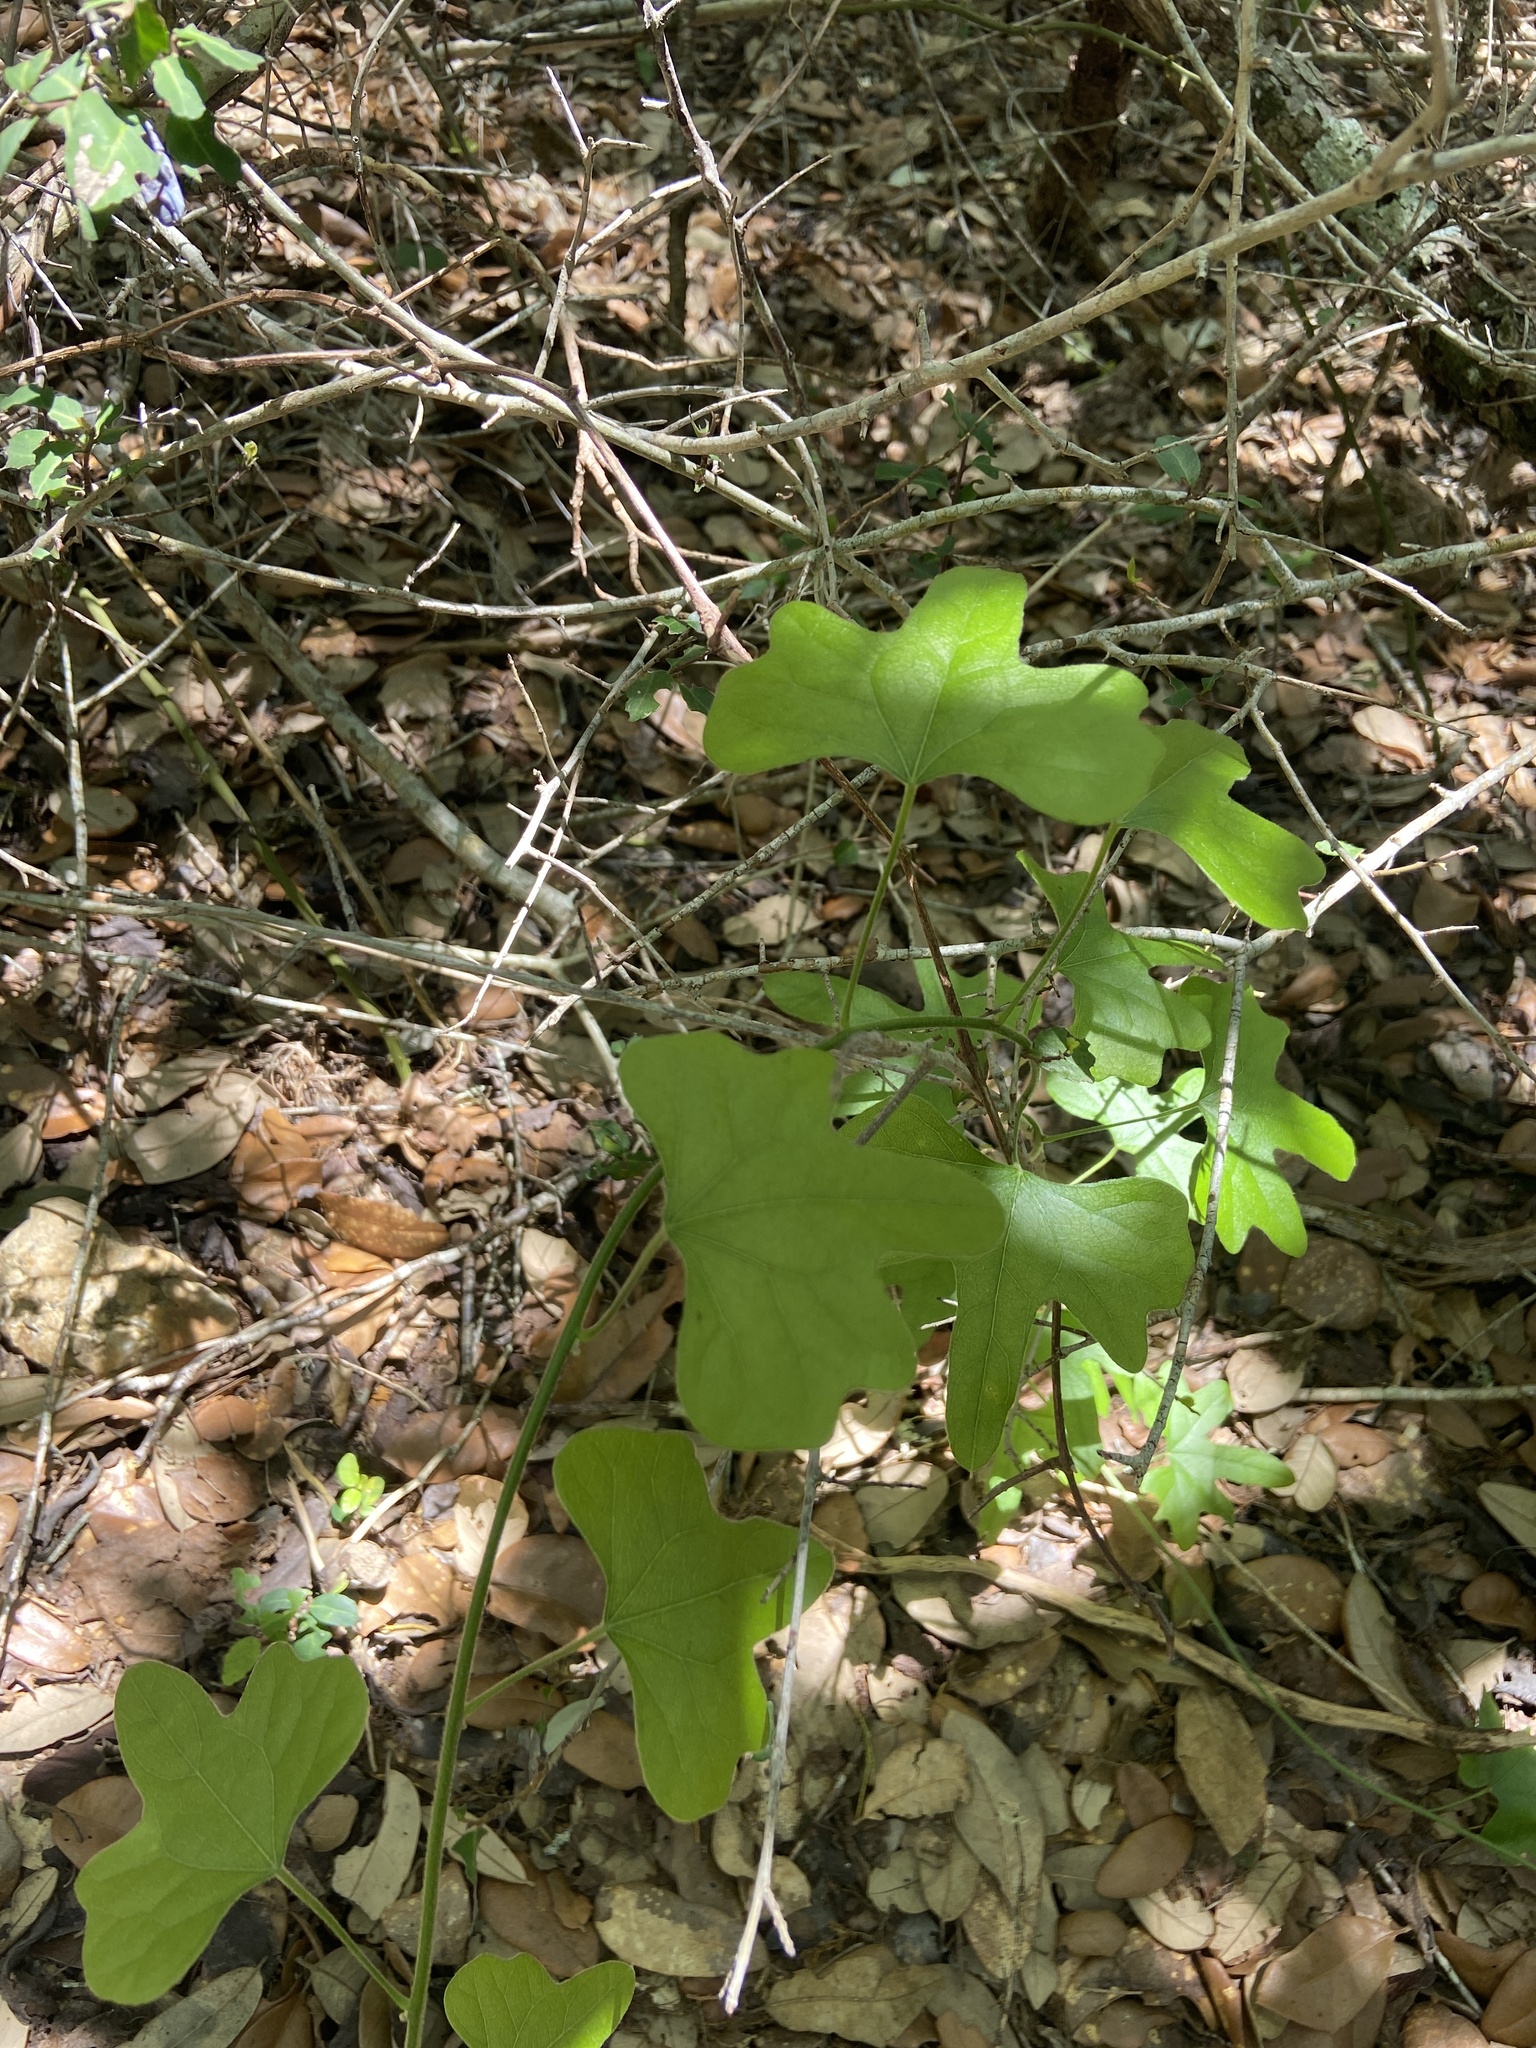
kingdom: Plantae
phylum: Tracheophyta
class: Magnoliopsida
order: Ranunculales
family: Menispermaceae
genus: Cocculus
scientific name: Cocculus carolinus
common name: Carolina moonseed
